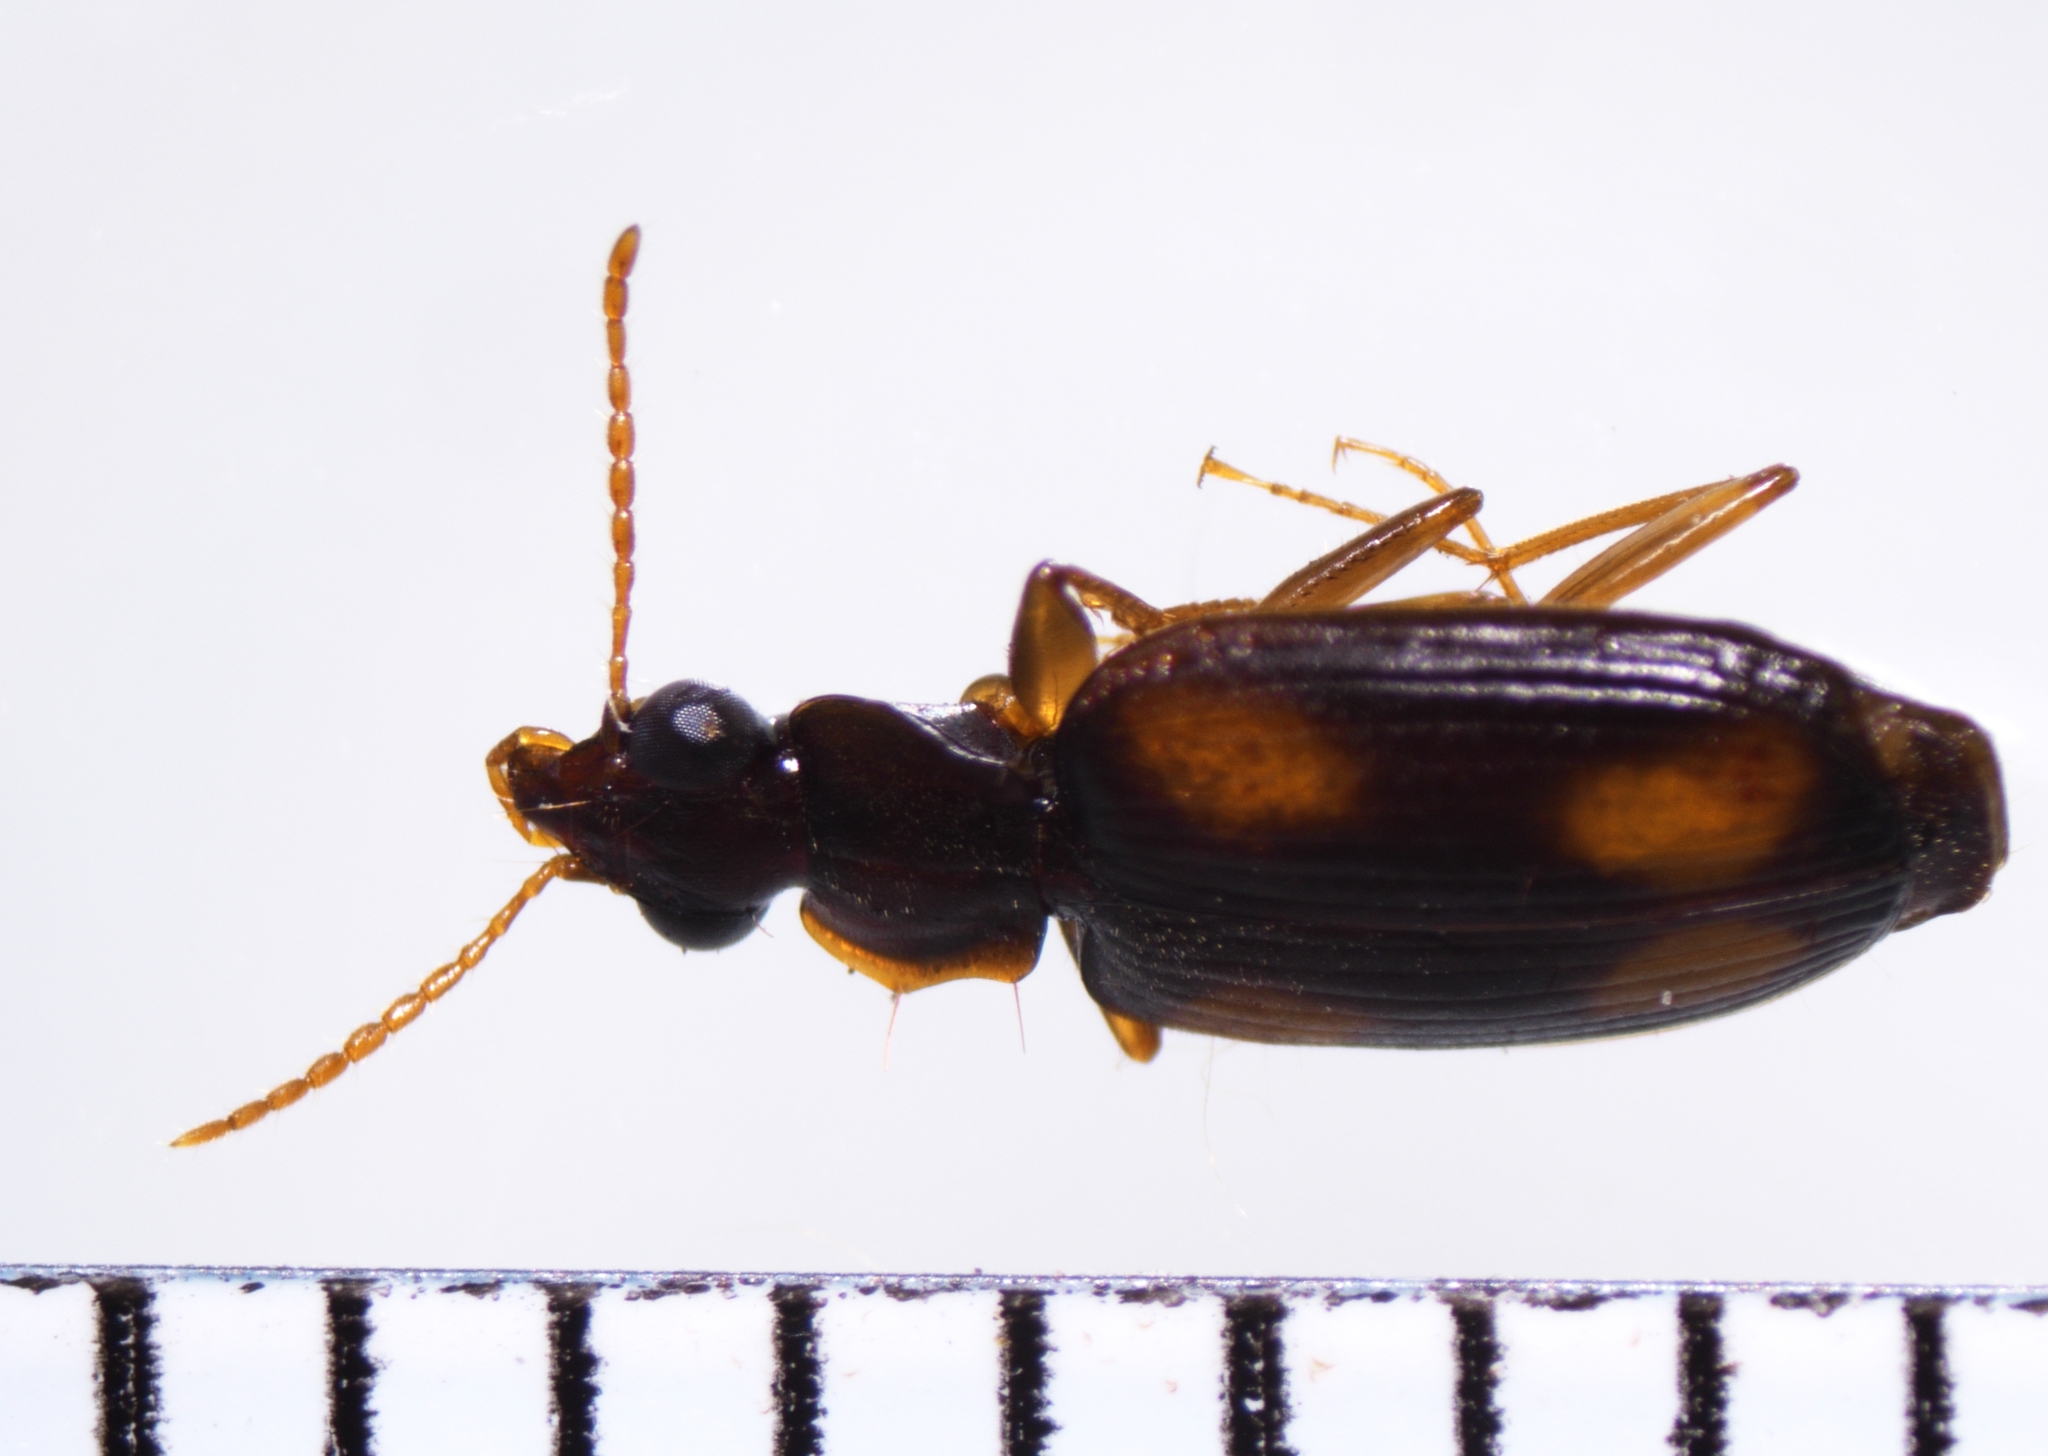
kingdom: Animalia
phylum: Arthropoda
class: Insecta
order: Coleoptera
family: Carabidae
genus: Mochtherus
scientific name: Mochtherus tetraspilotus
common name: Asian ground beetle
